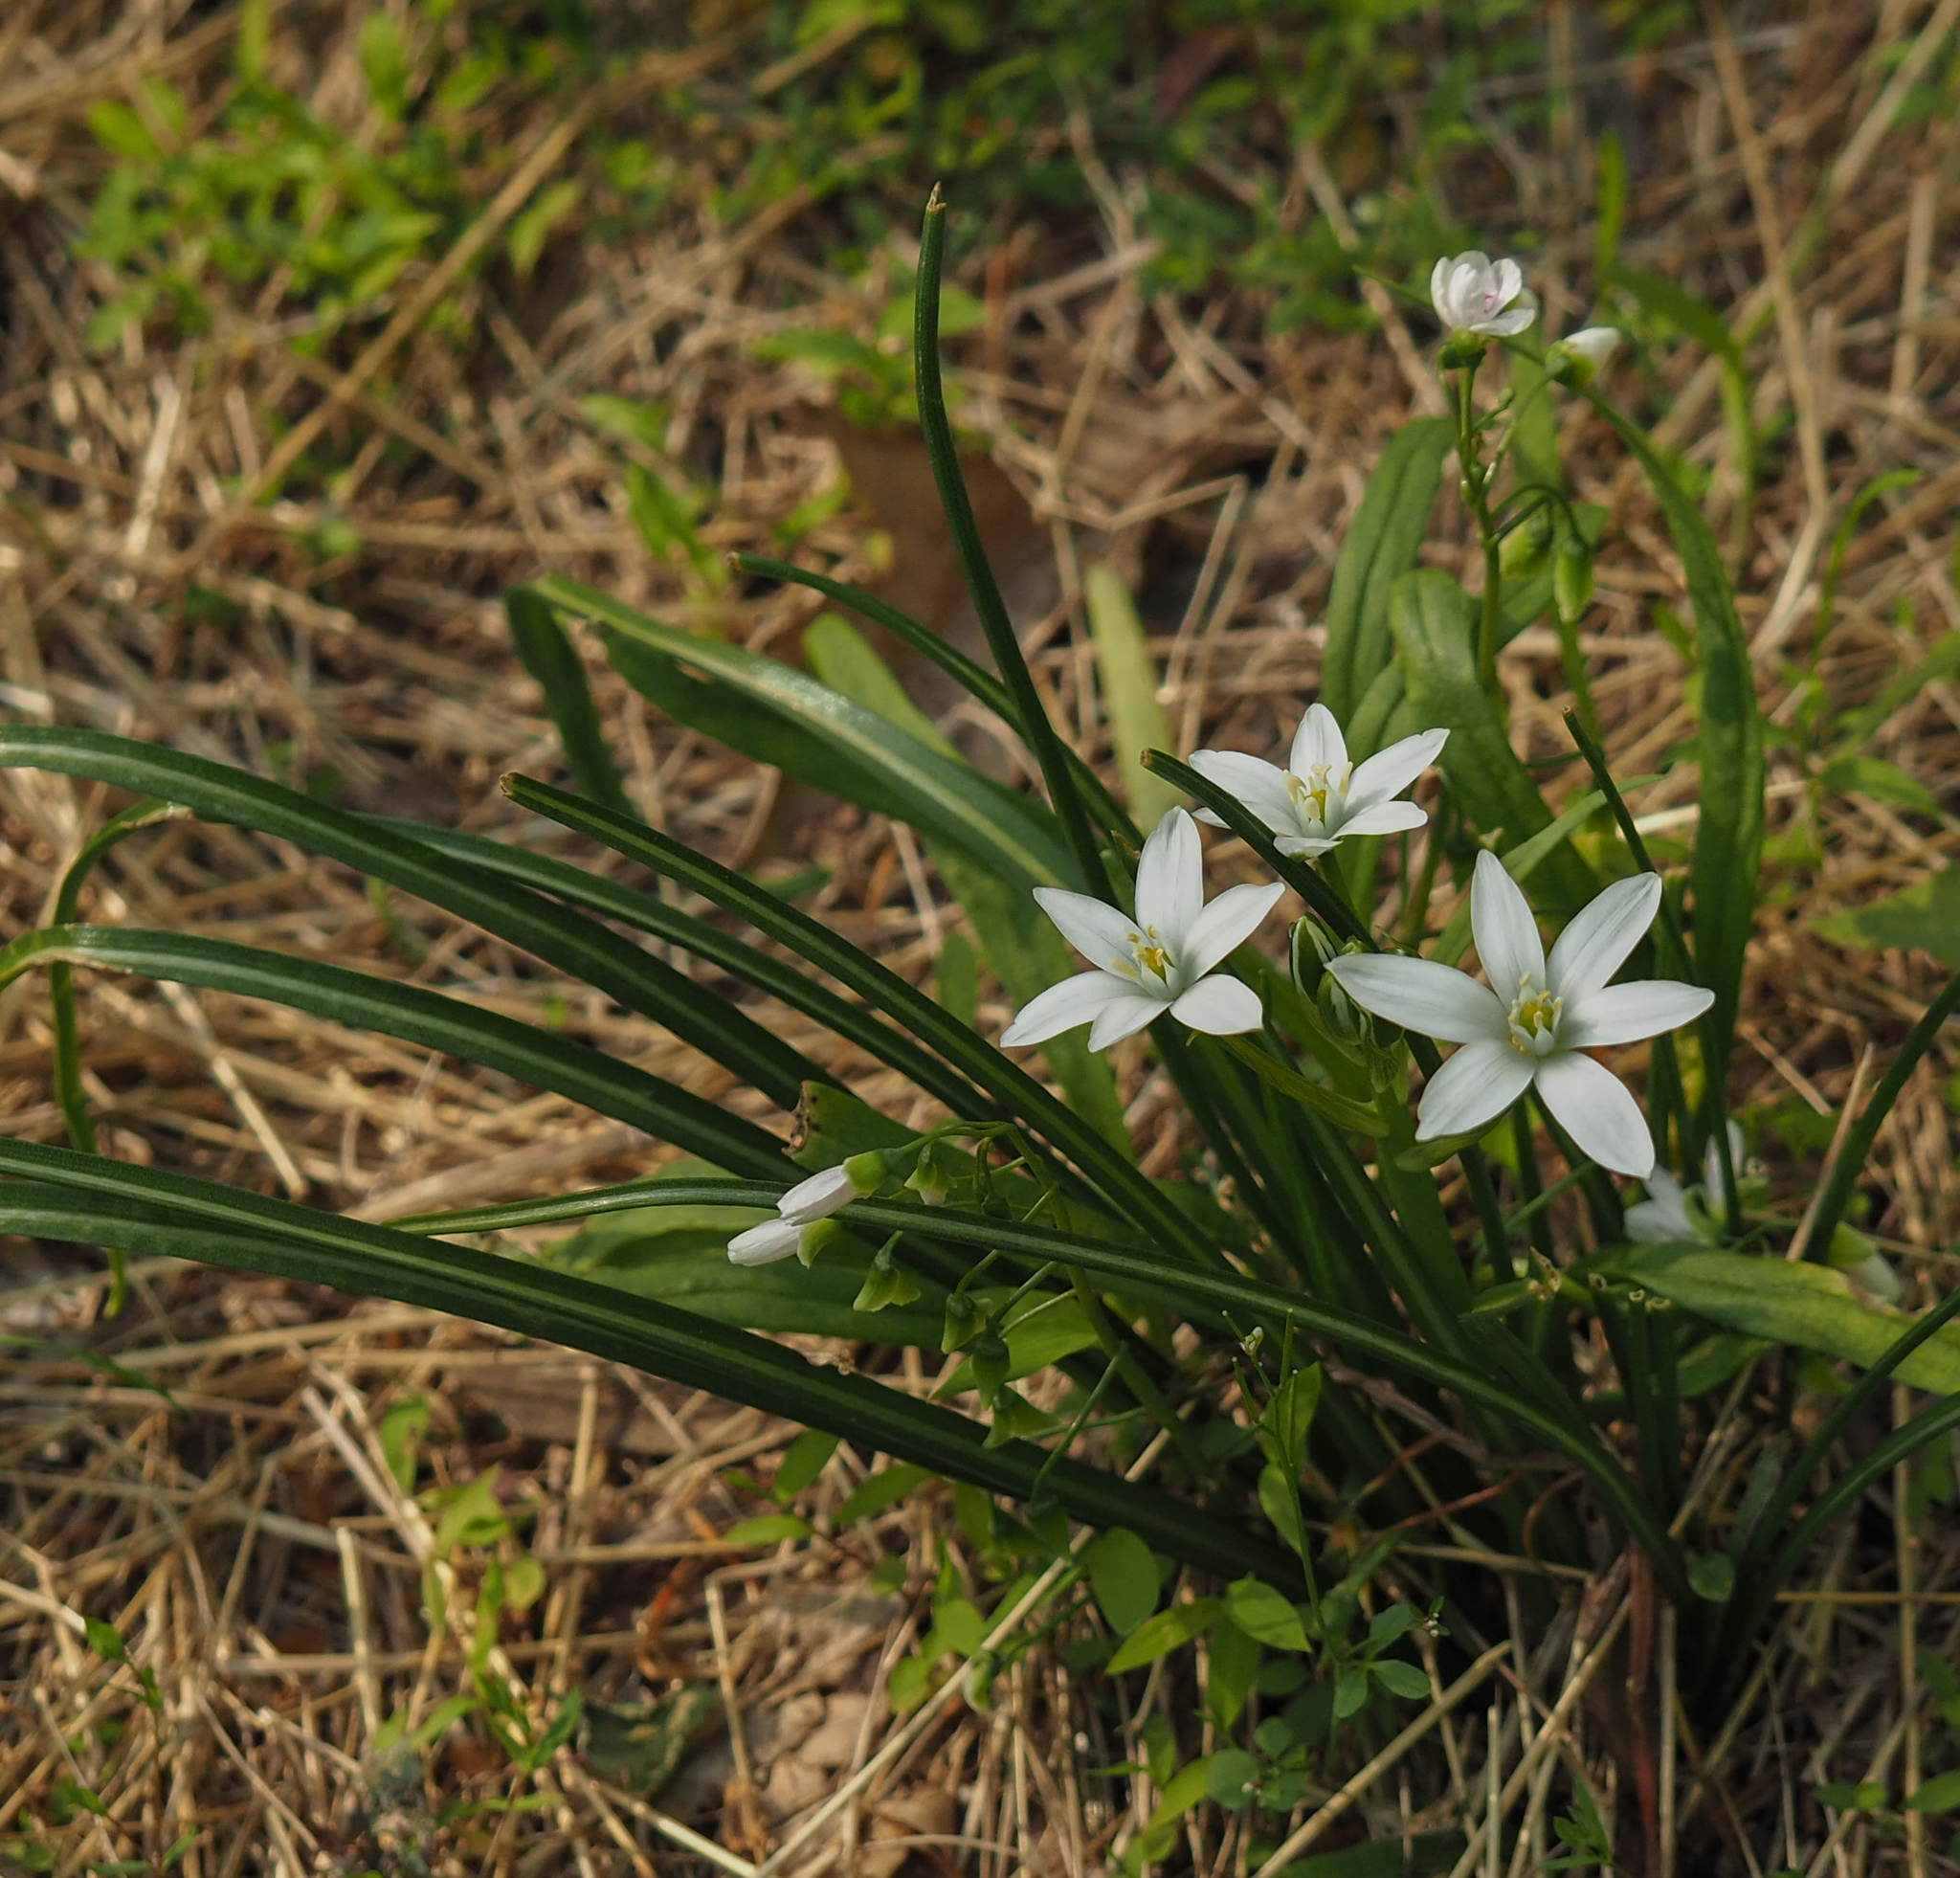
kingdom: Plantae
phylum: Tracheophyta
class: Liliopsida
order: Asparagales
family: Asparagaceae
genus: Ornithogalum
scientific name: Ornithogalum umbellatum
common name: Garden star-of-bethlehem
